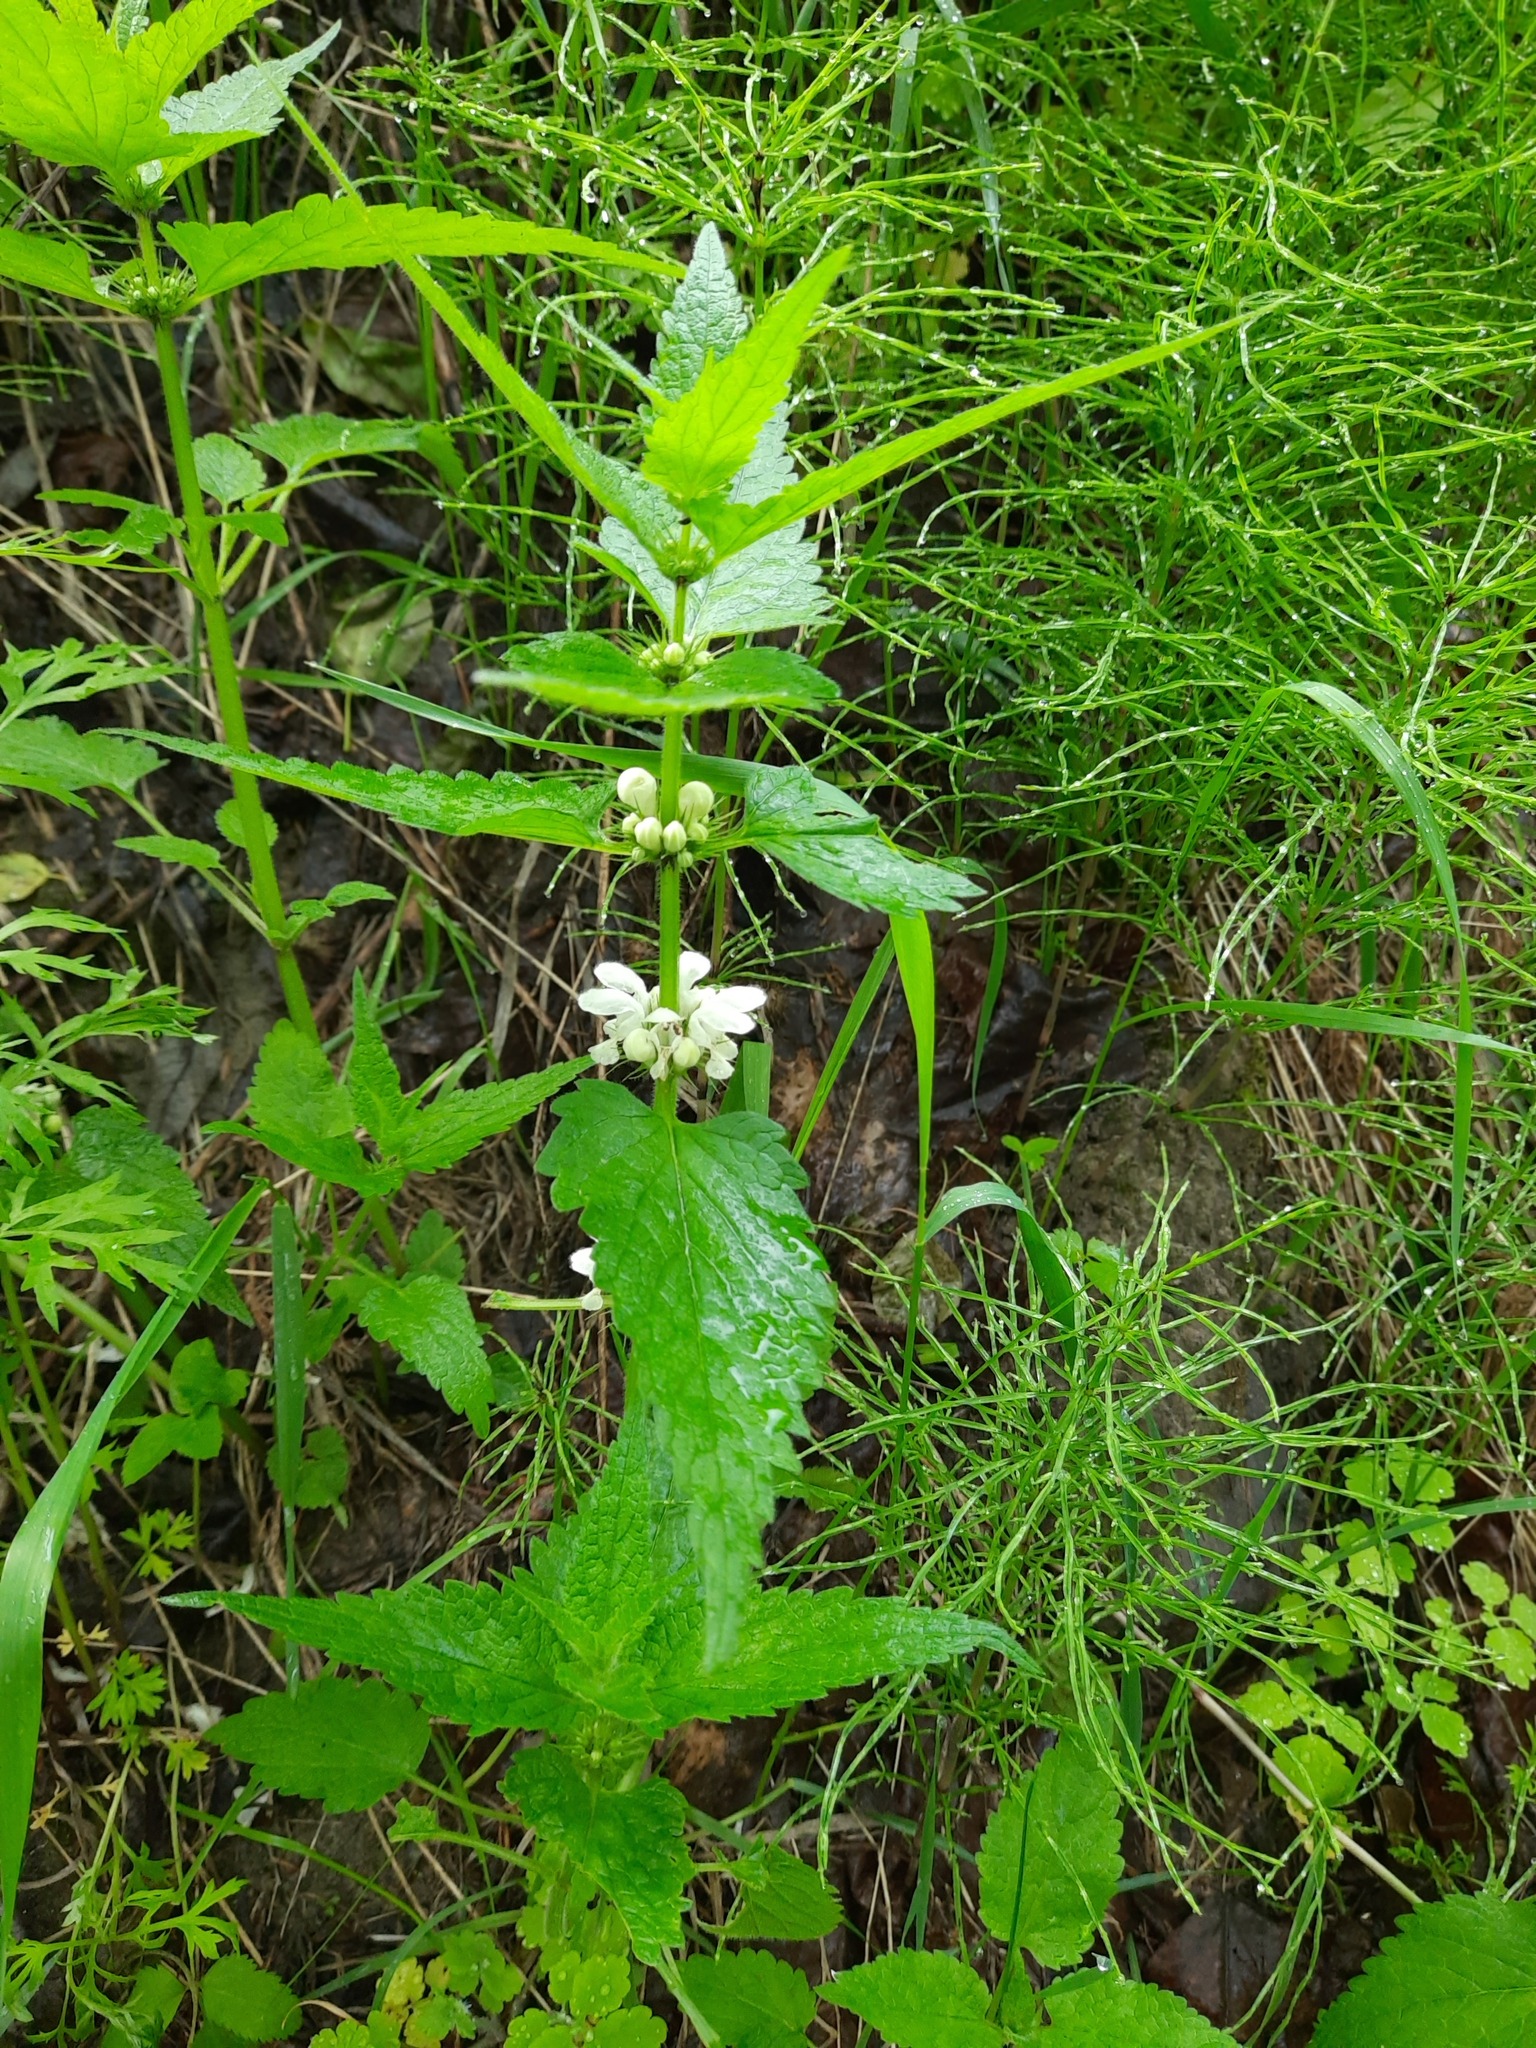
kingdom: Plantae
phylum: Tracheophyta
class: Magnoliopsida
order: Lamiales
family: Lamiaceae
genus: Lamium
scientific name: Lamium album
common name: White dead-nettle
